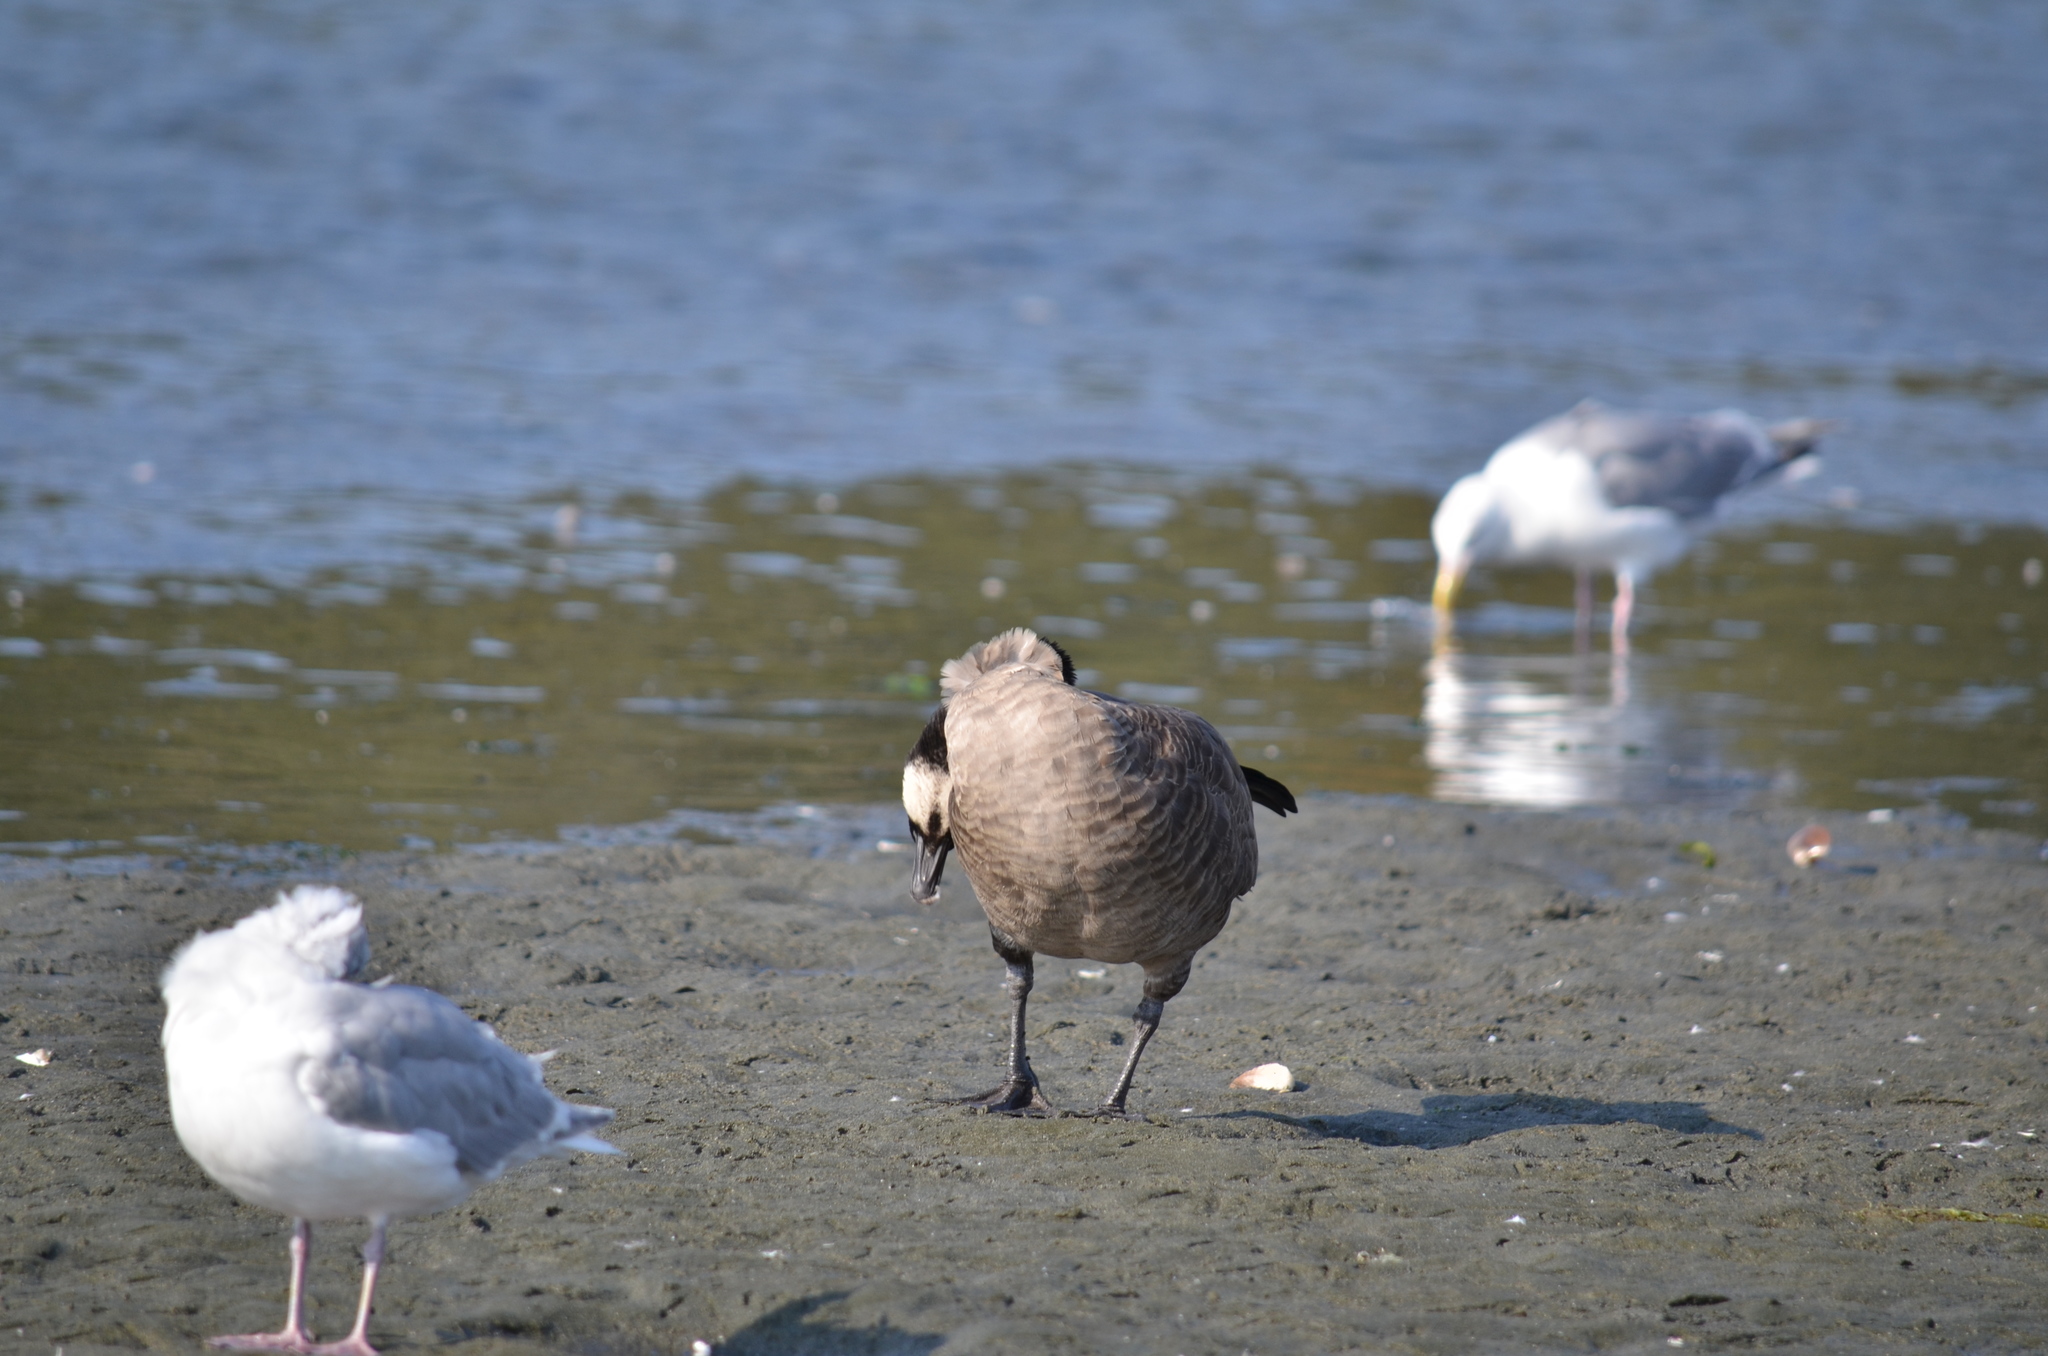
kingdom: Animalia
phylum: Chordata
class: Aves
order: Anseriformes
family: Anatidae
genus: Branta
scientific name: Branta canadensis
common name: Canada goose
